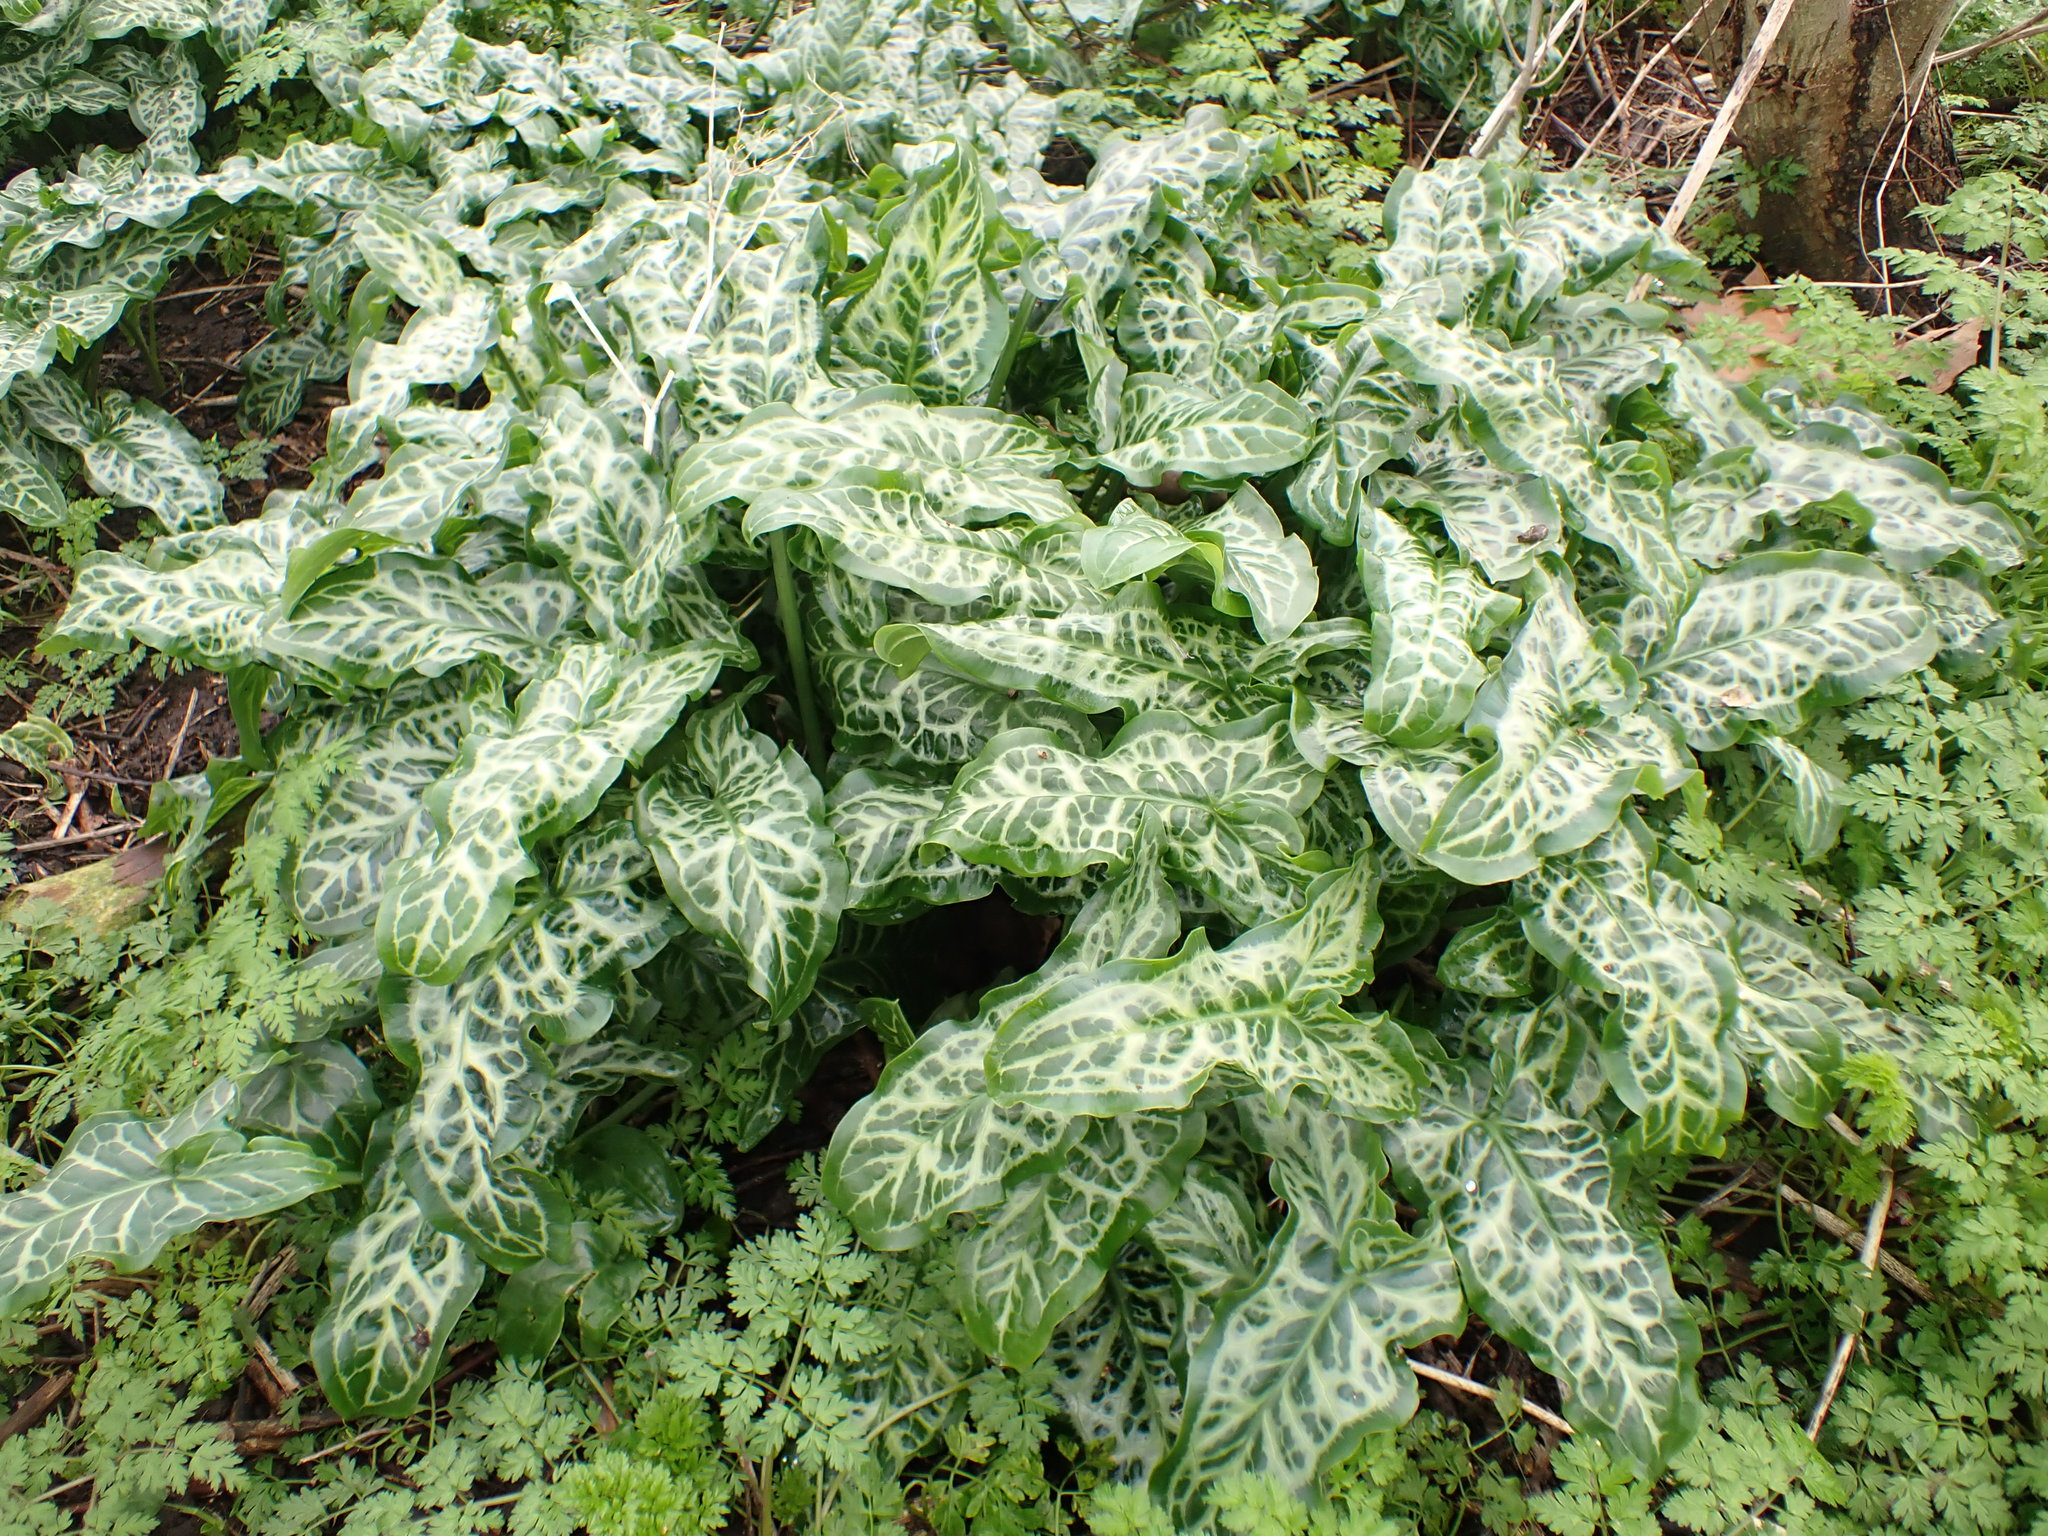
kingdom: Plantae
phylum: Tracheophyta
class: Liliopsida
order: Alismatales
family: Araceae
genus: Arum
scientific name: Arum italicum
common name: Italian lords-and-ladies
